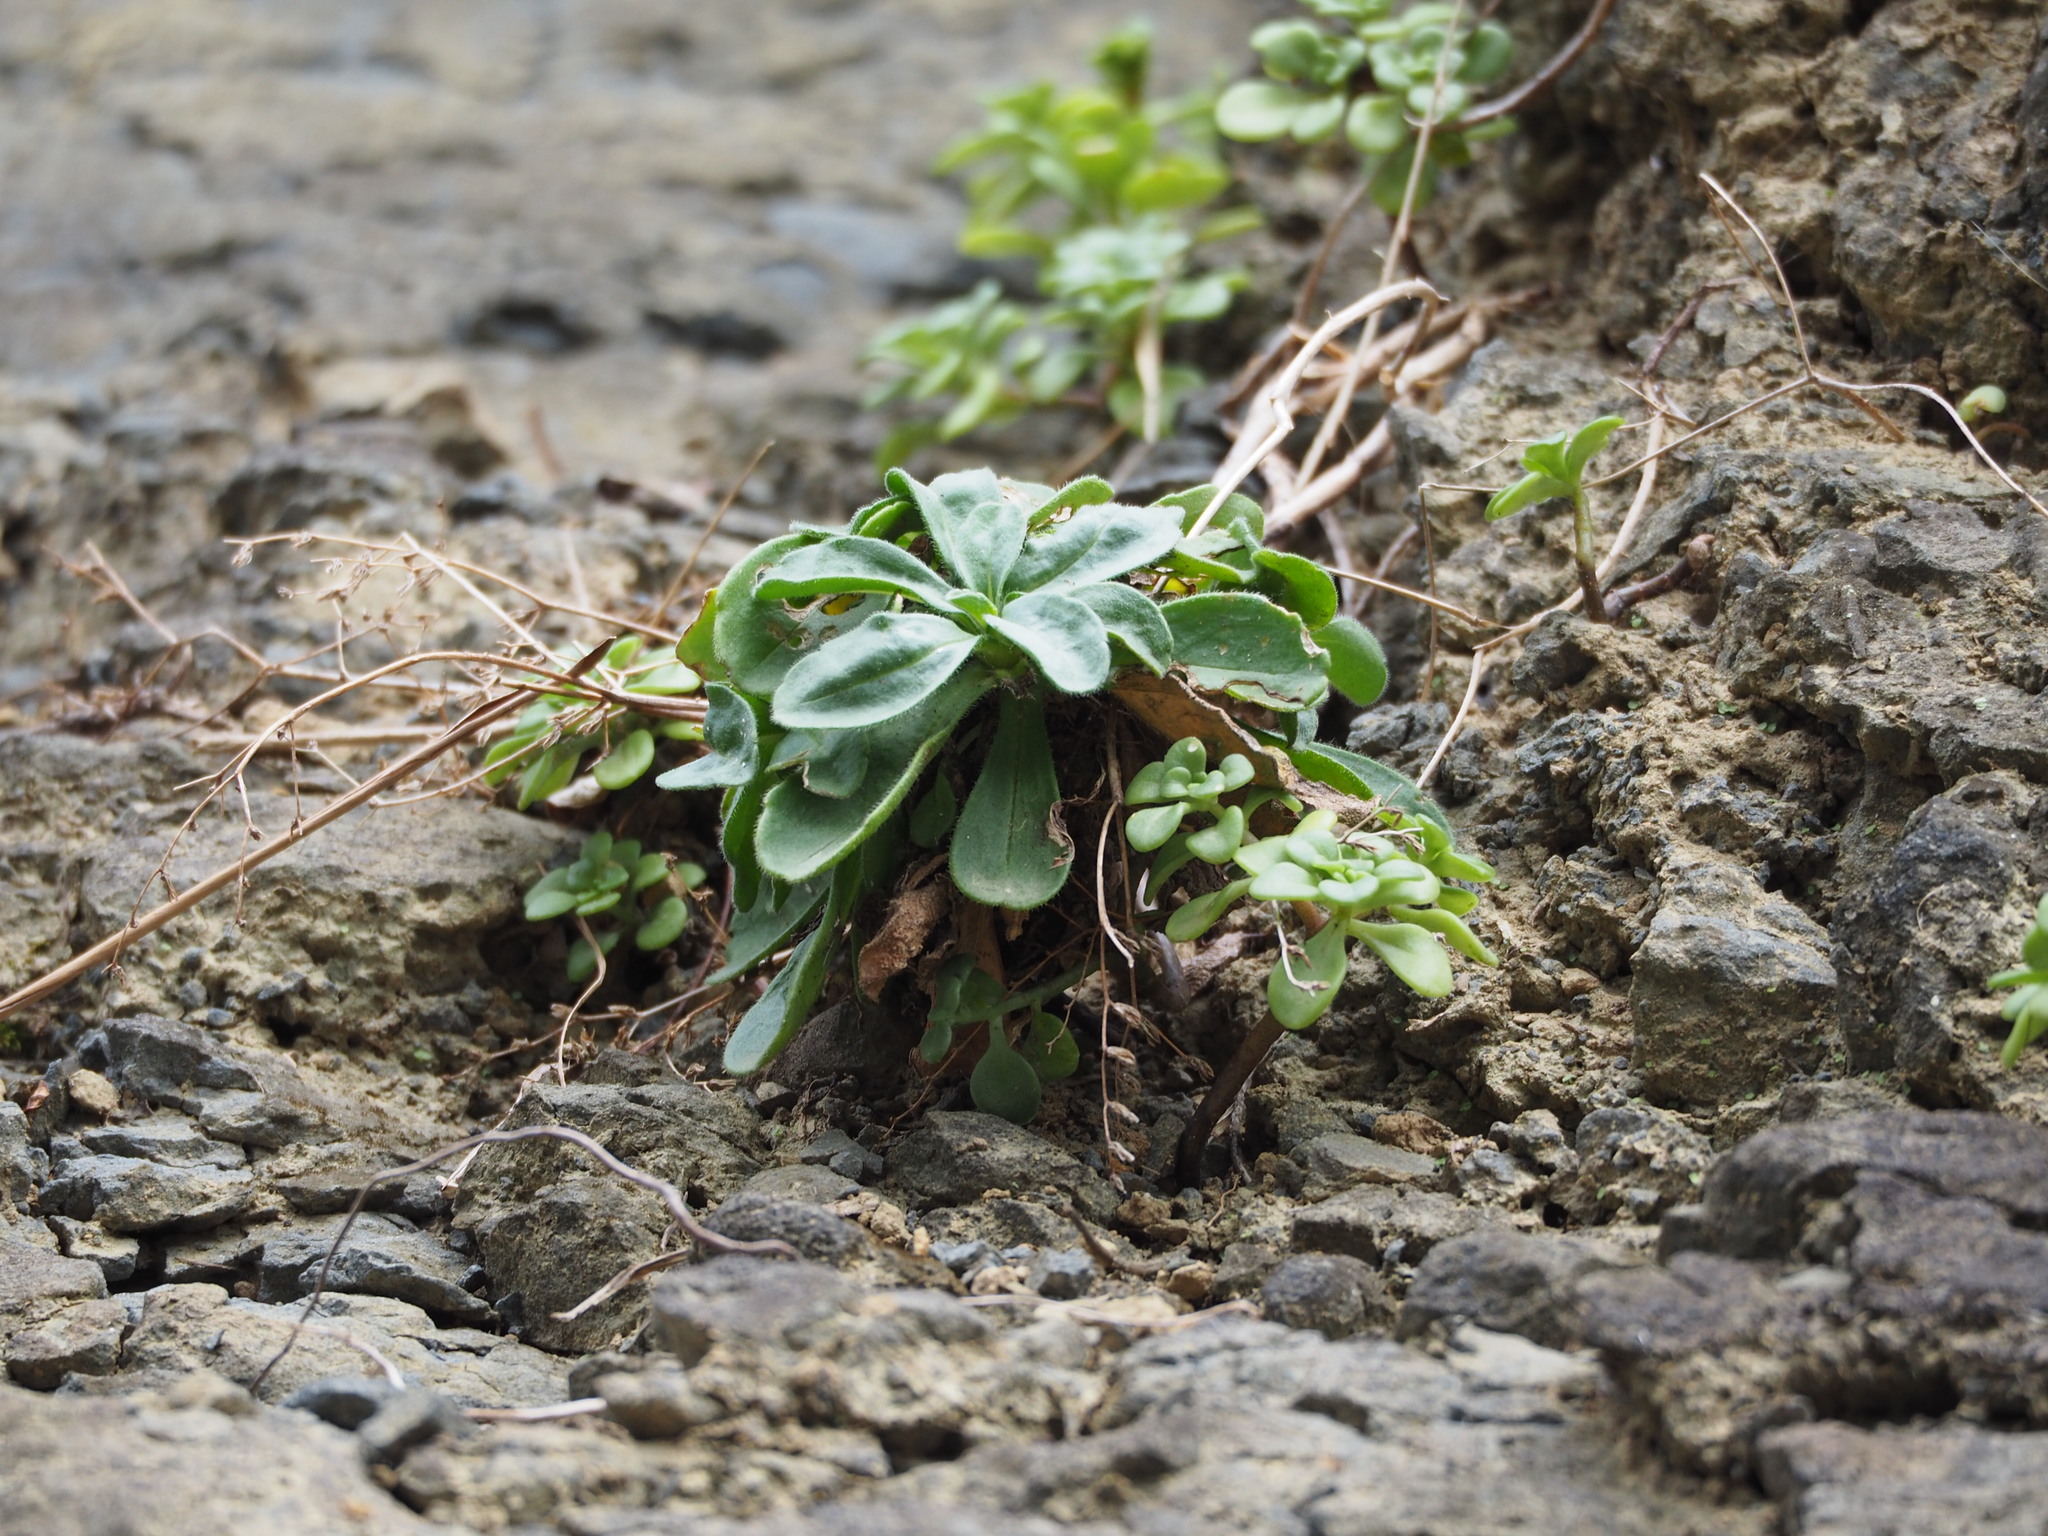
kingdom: Plantae
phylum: Tracheophyta
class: Magnoliopsida
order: Caryophyllales
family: Plumbaginaceae
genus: Limonium
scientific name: Limonium sinense
